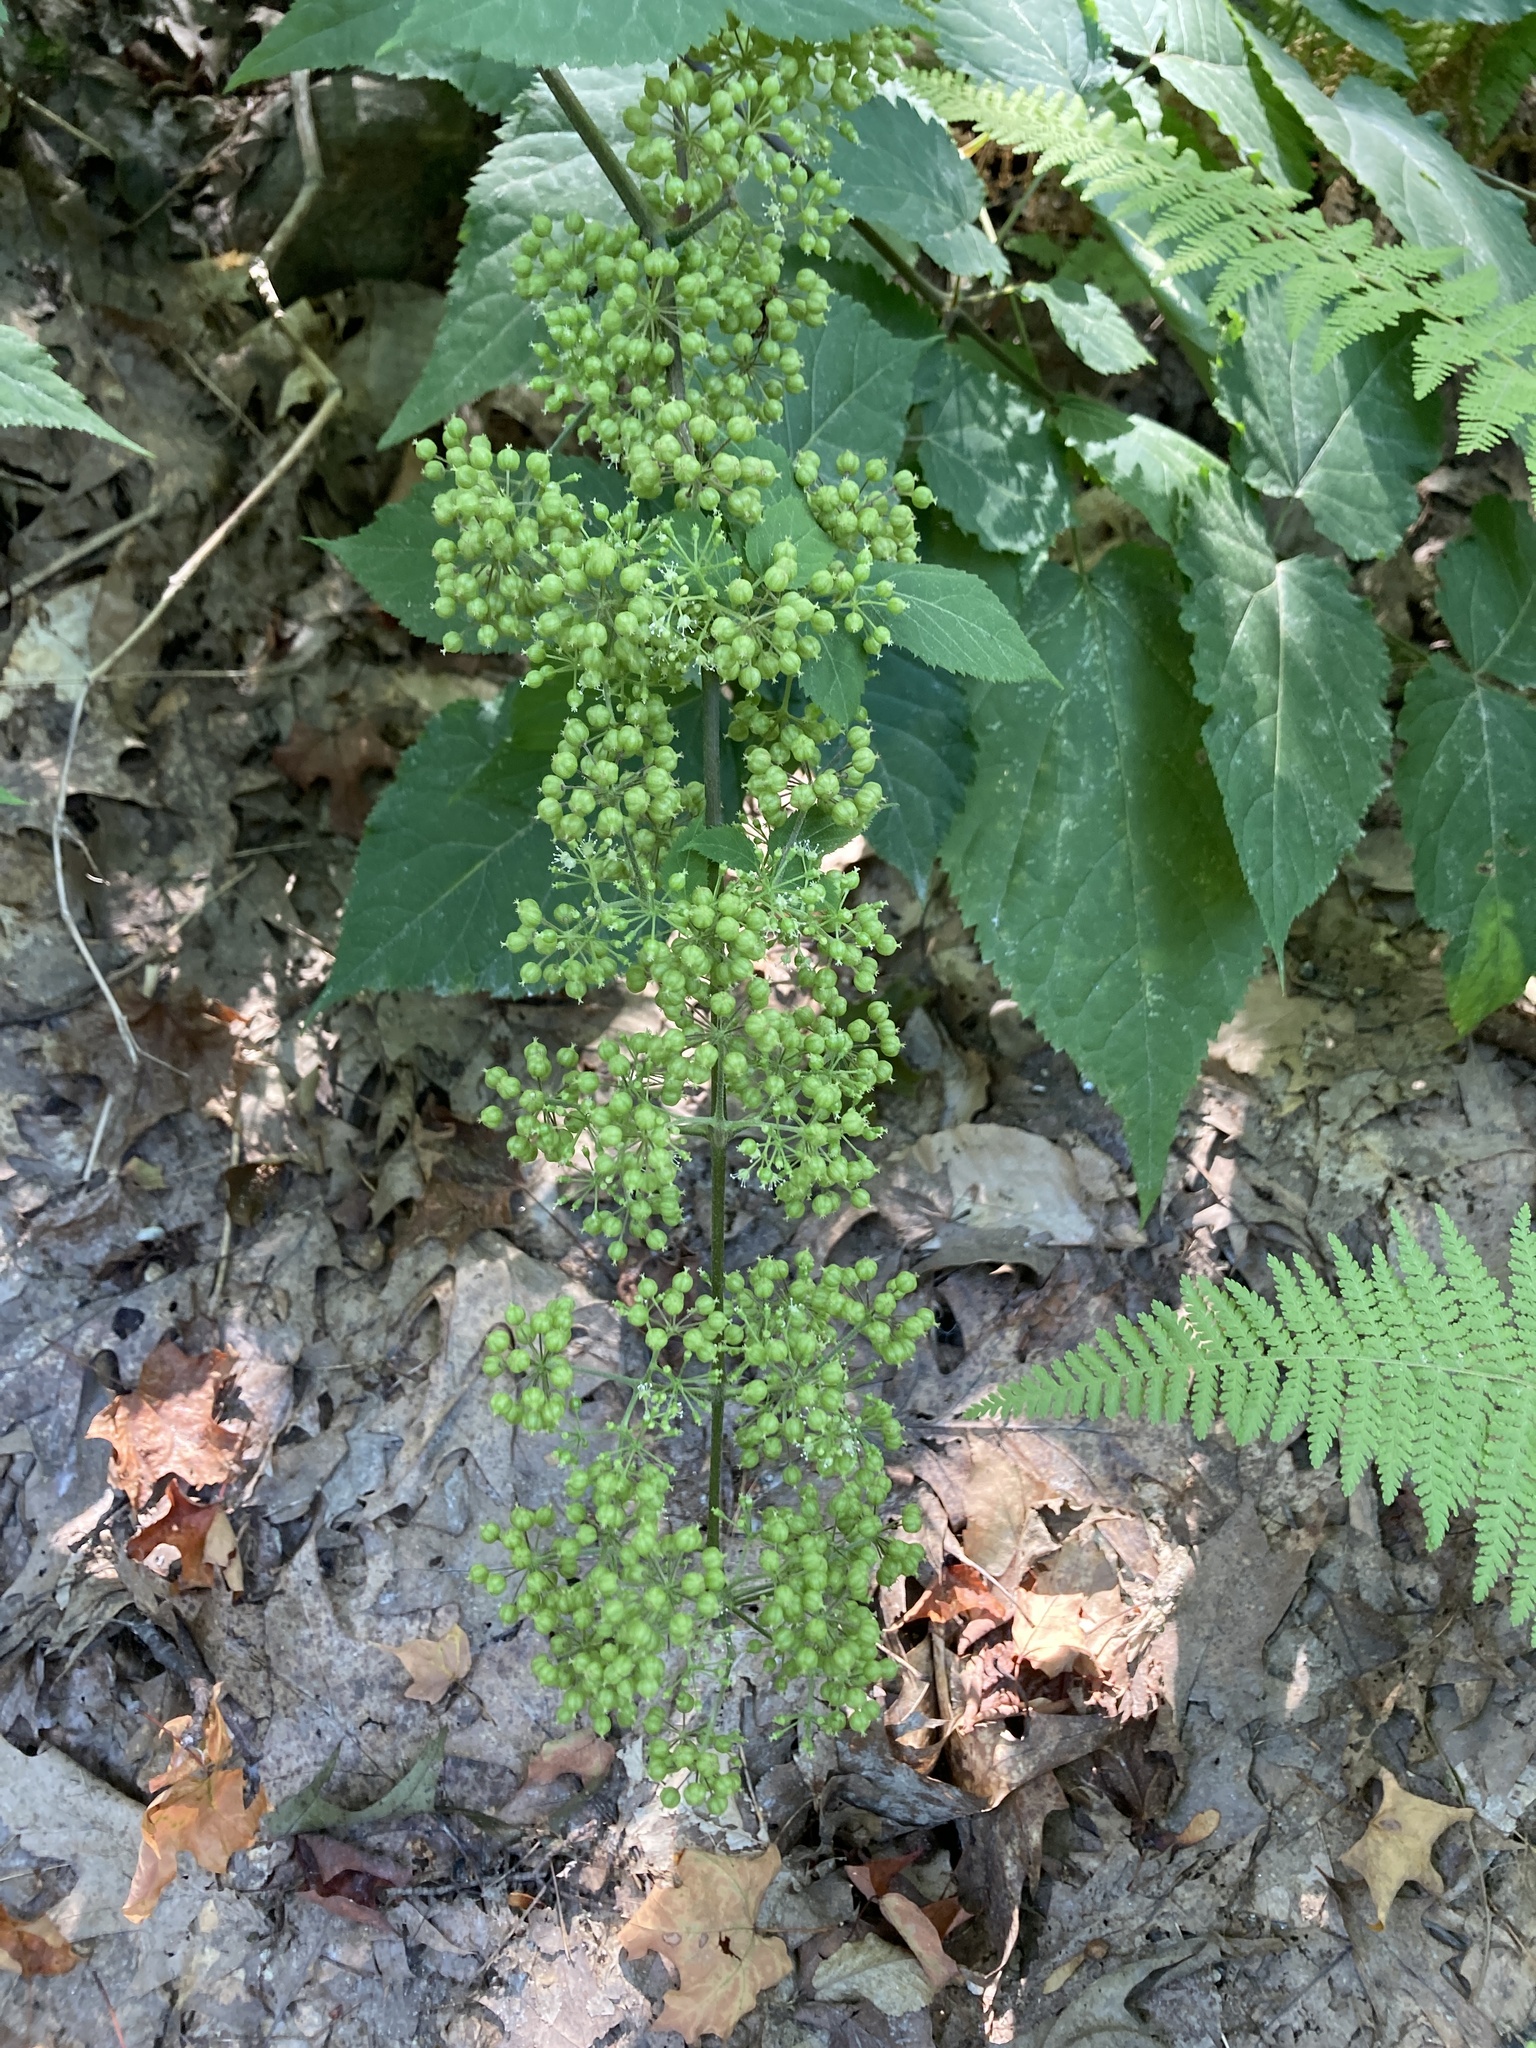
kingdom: Plantae
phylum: Tracheophyta
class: Magnoliopsida
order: Apiales
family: Araliaceae
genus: Aralia
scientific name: Aralia racemosa
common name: American-spikenard
